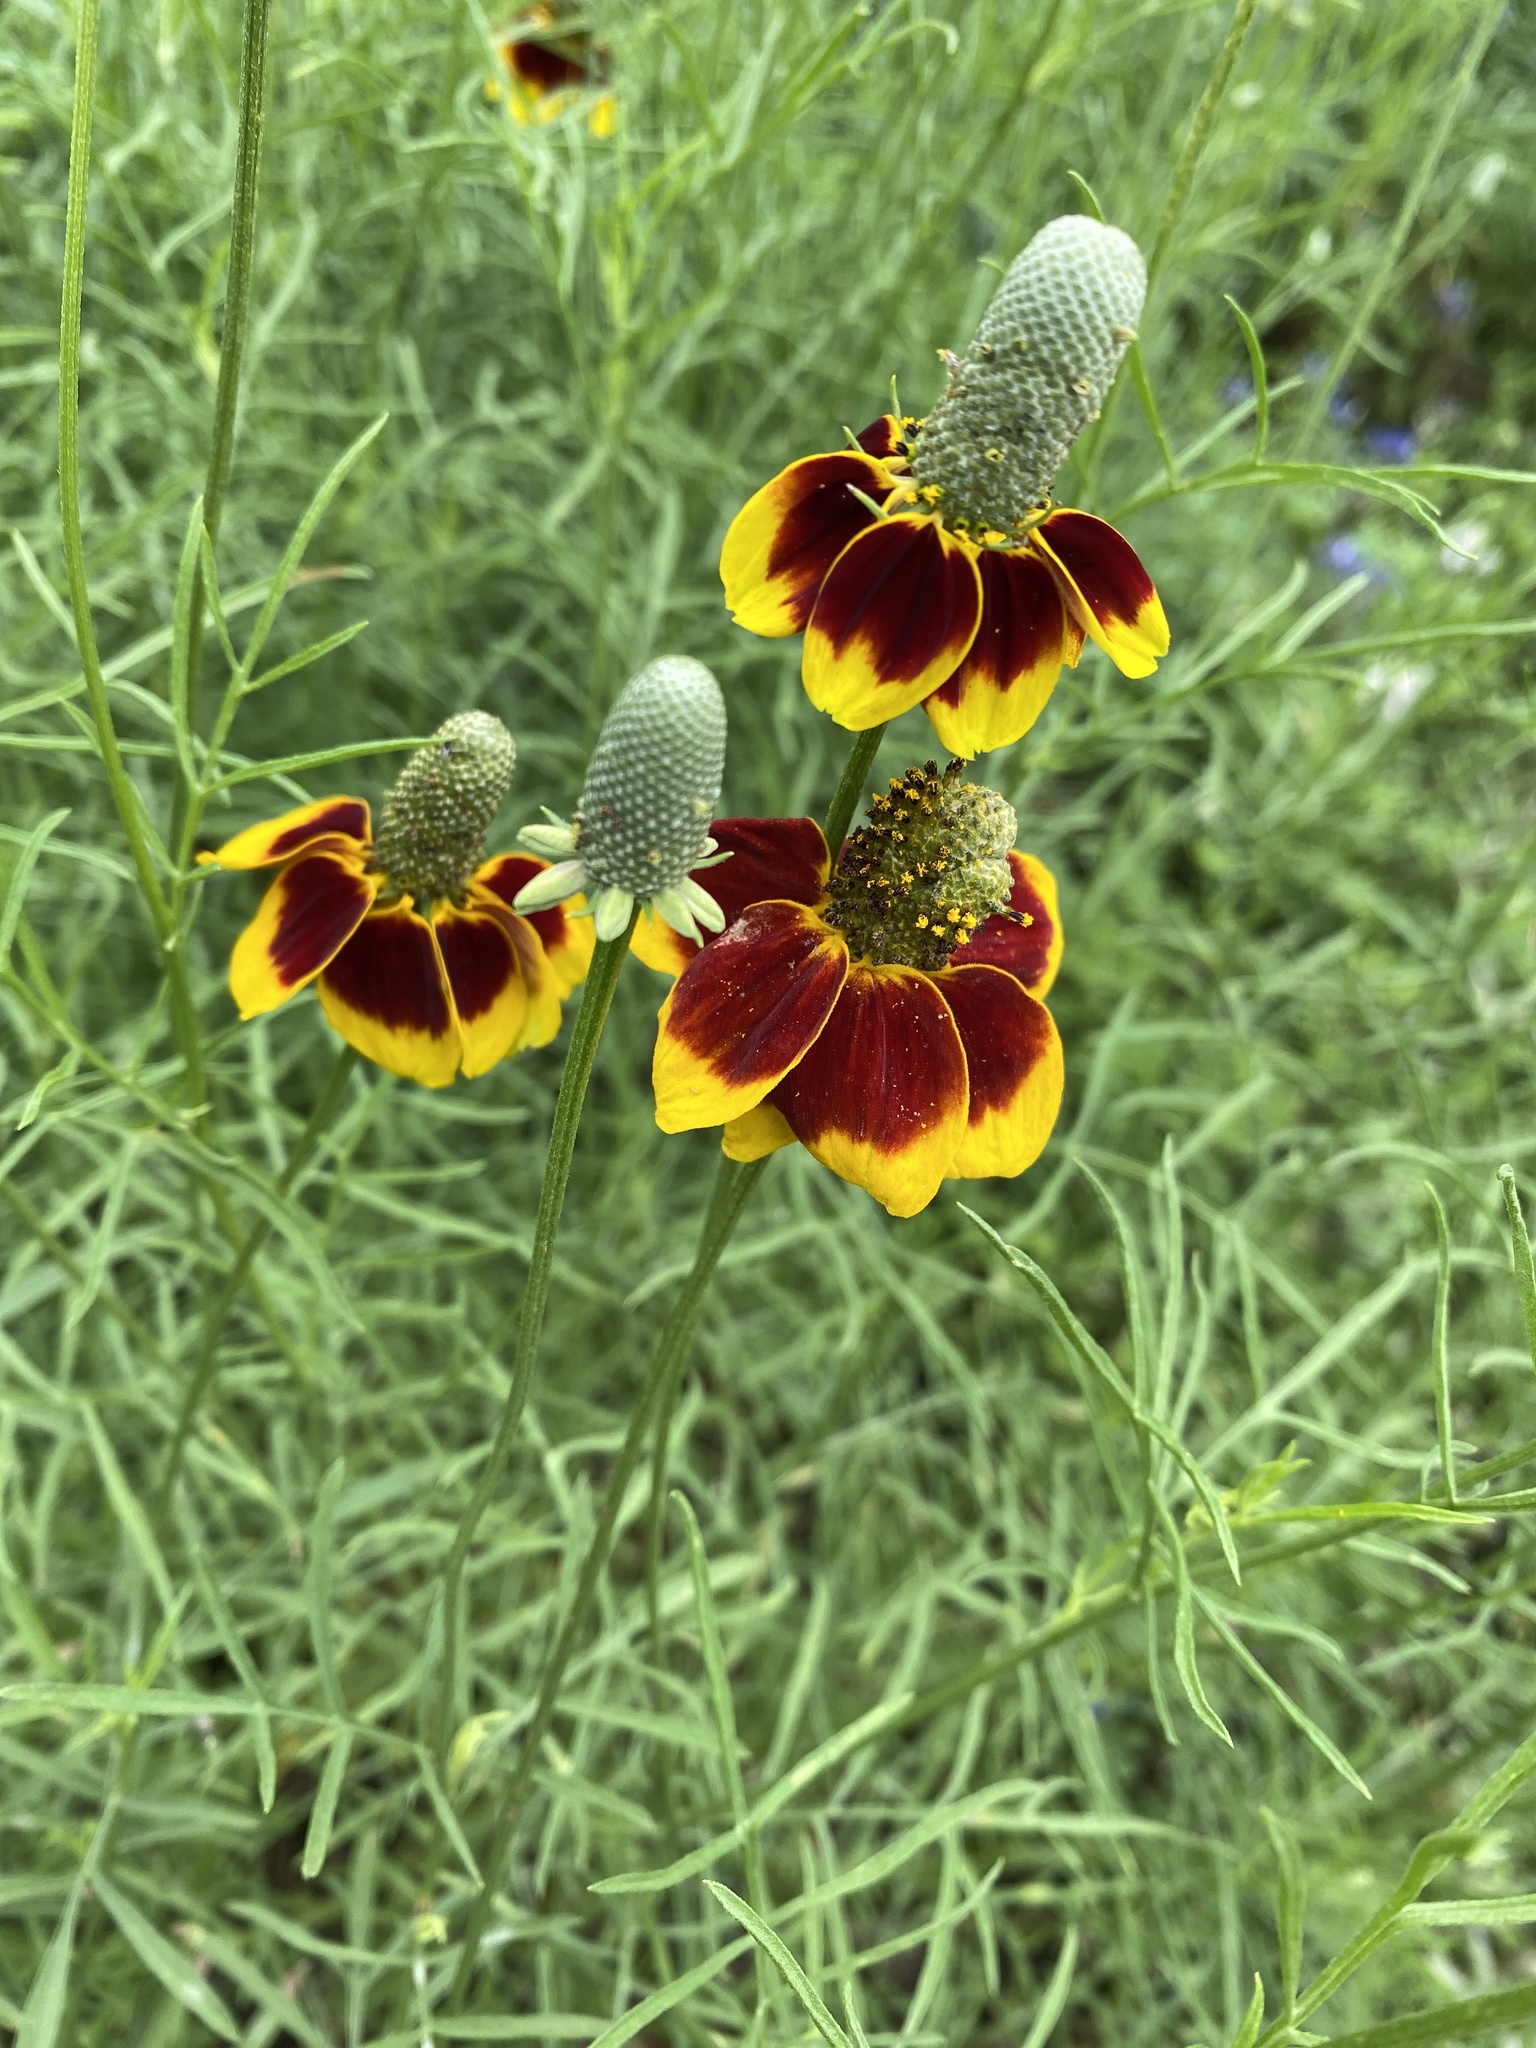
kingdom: Plantae
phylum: Tracheophyta
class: Magnoliopsida
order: Asterales
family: Asteraceae
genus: Ratibida
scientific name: Ratibida columnifera
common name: Prairie coneflower
